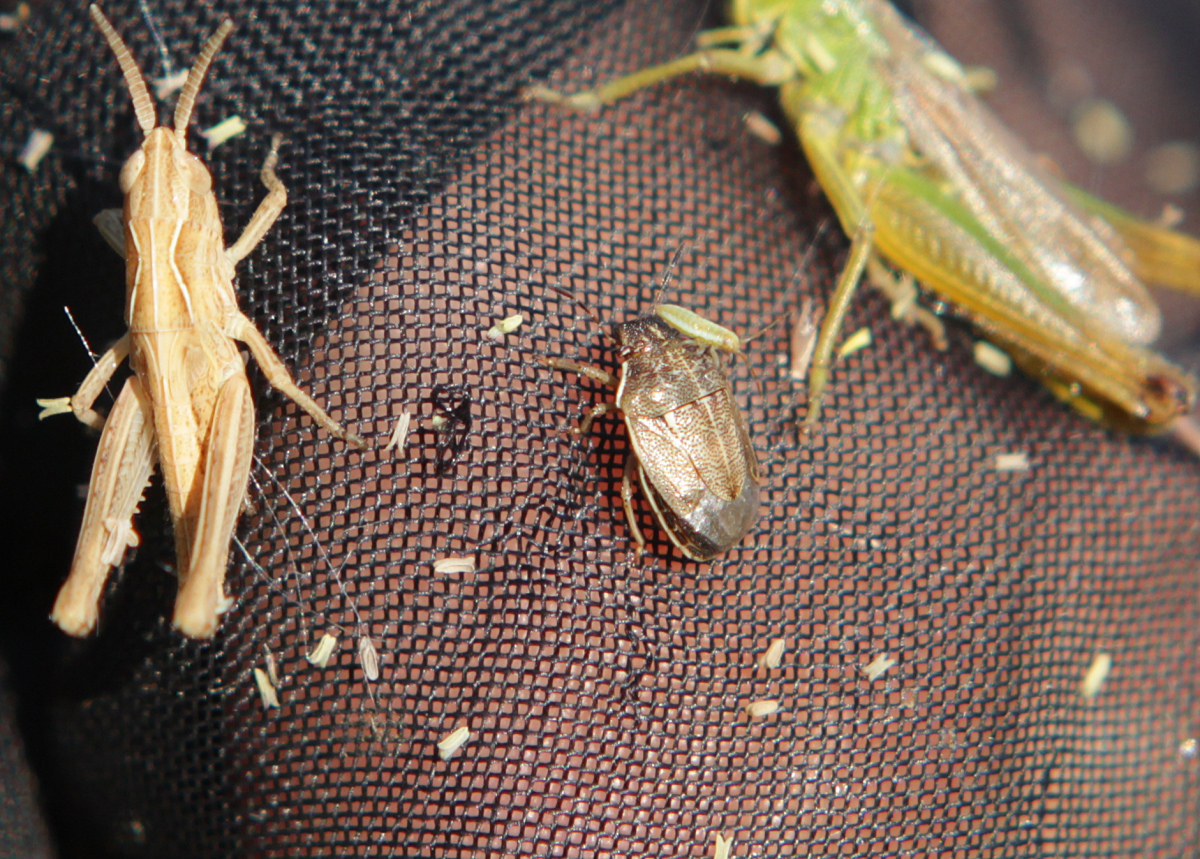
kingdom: Animalia
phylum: Arthropoda
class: Insecta
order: Hemiptera
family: Pentatomidae
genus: Neottiglossa
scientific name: Neottiglossa pusilla
